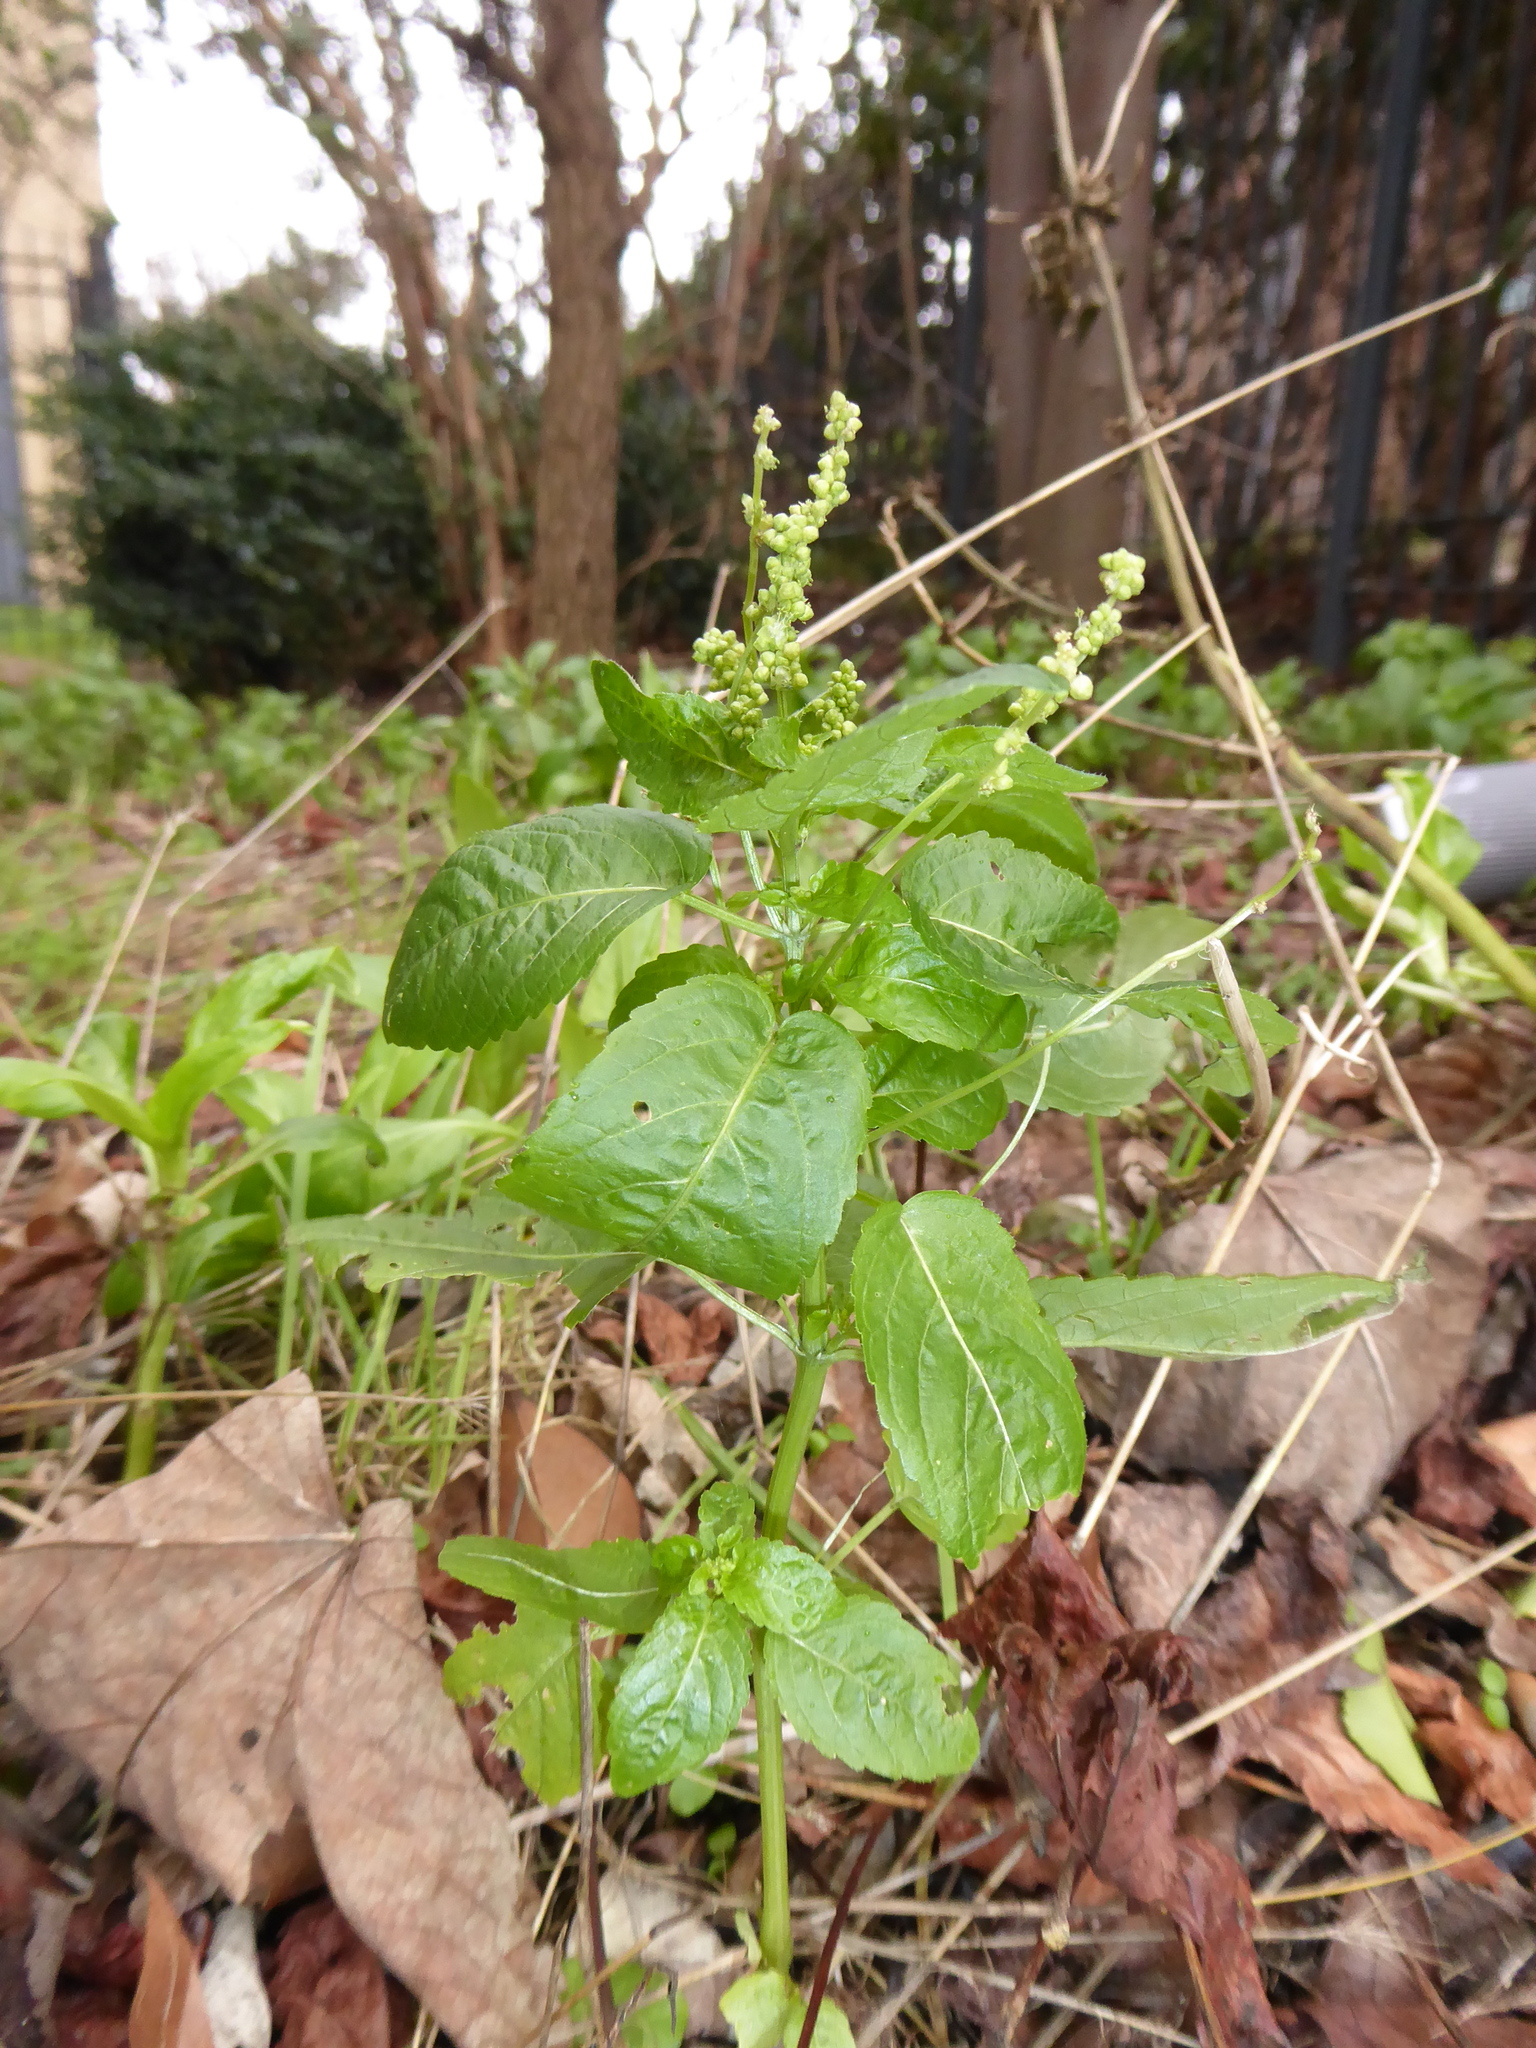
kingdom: Plantae
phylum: Tracheophyta
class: Magnoliopsida
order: Malpighiales
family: Euphorbiaceae
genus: Mercurialis
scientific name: Mercurialis annua
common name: Annual mercury
